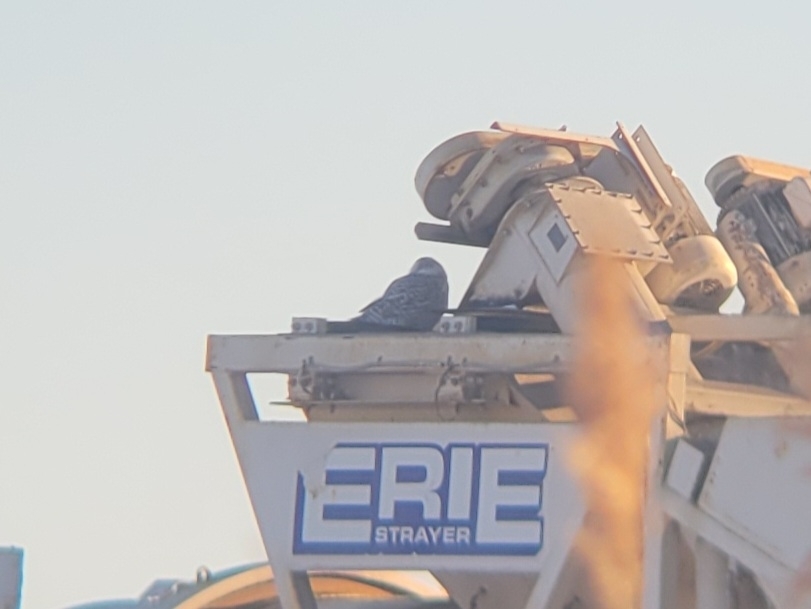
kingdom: Animalia
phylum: Chordata
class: Aves
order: Strigiformes
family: Strigidae
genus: Bubo
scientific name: Bubo scandiacus
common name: Snowy owl
